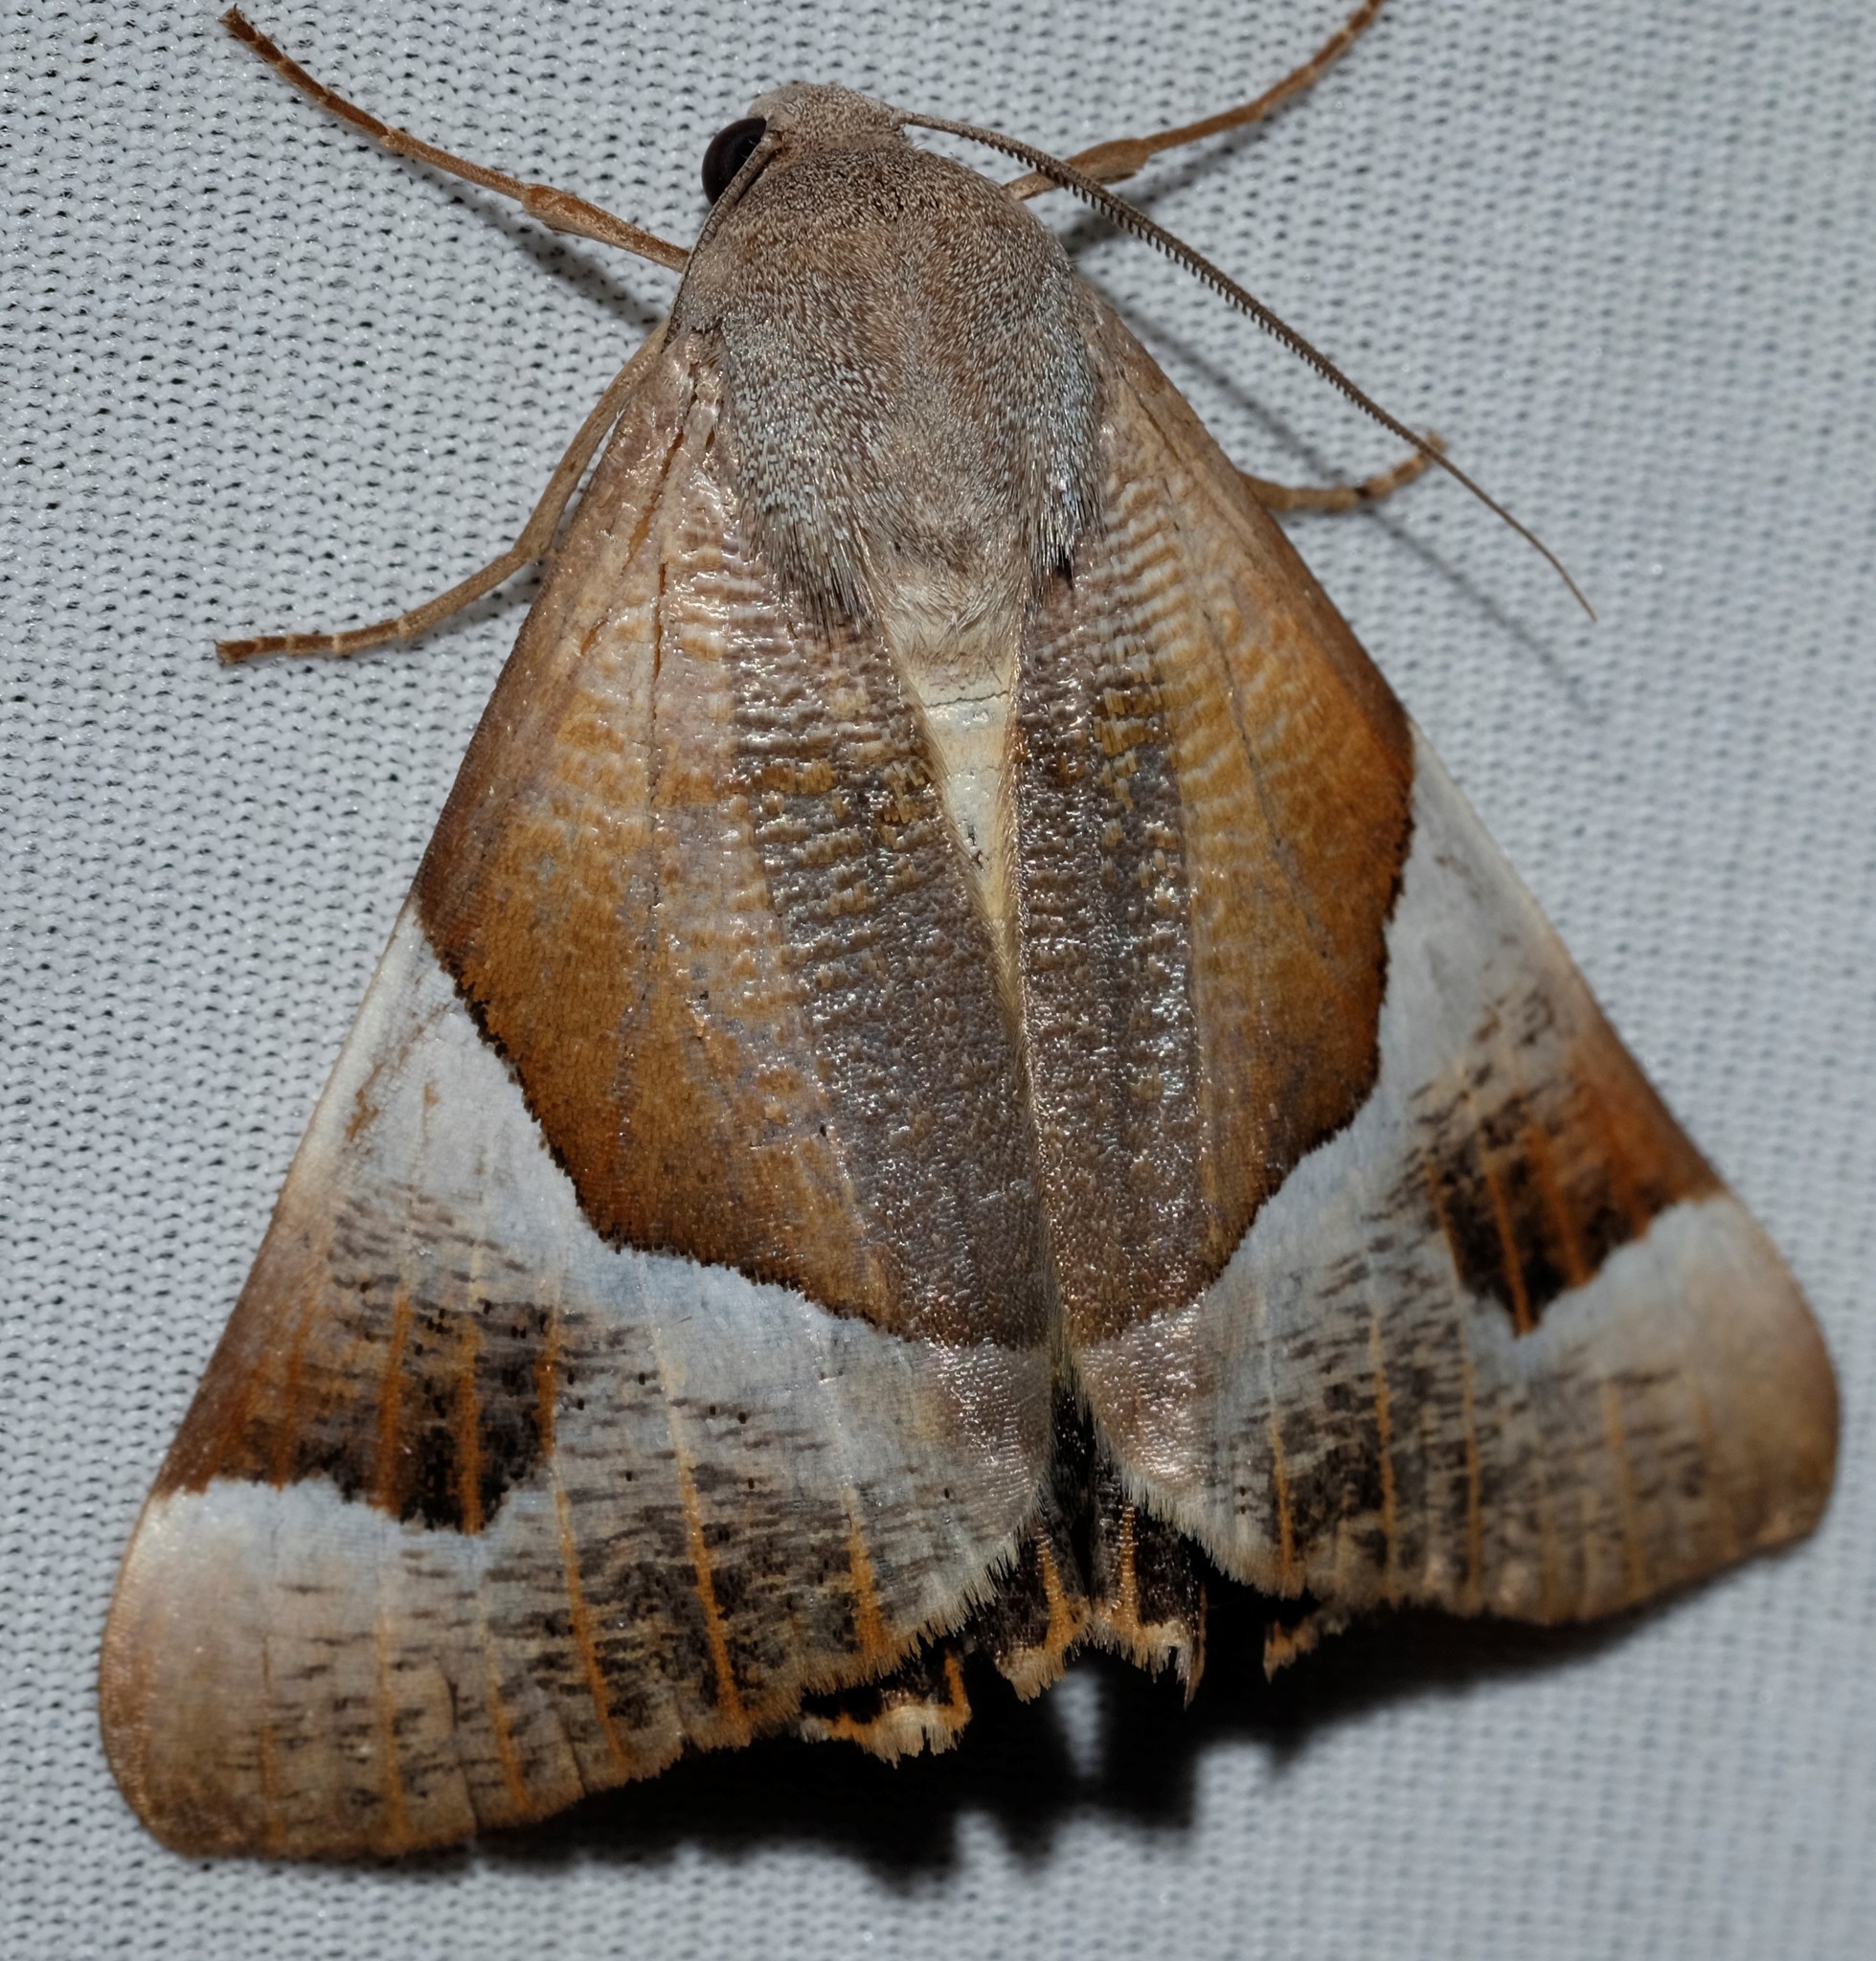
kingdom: Animalia
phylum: Arthropoda
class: Insecta
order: Lepidoptera
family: Geometridae
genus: Niceteria
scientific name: Niceteria macrocosma
